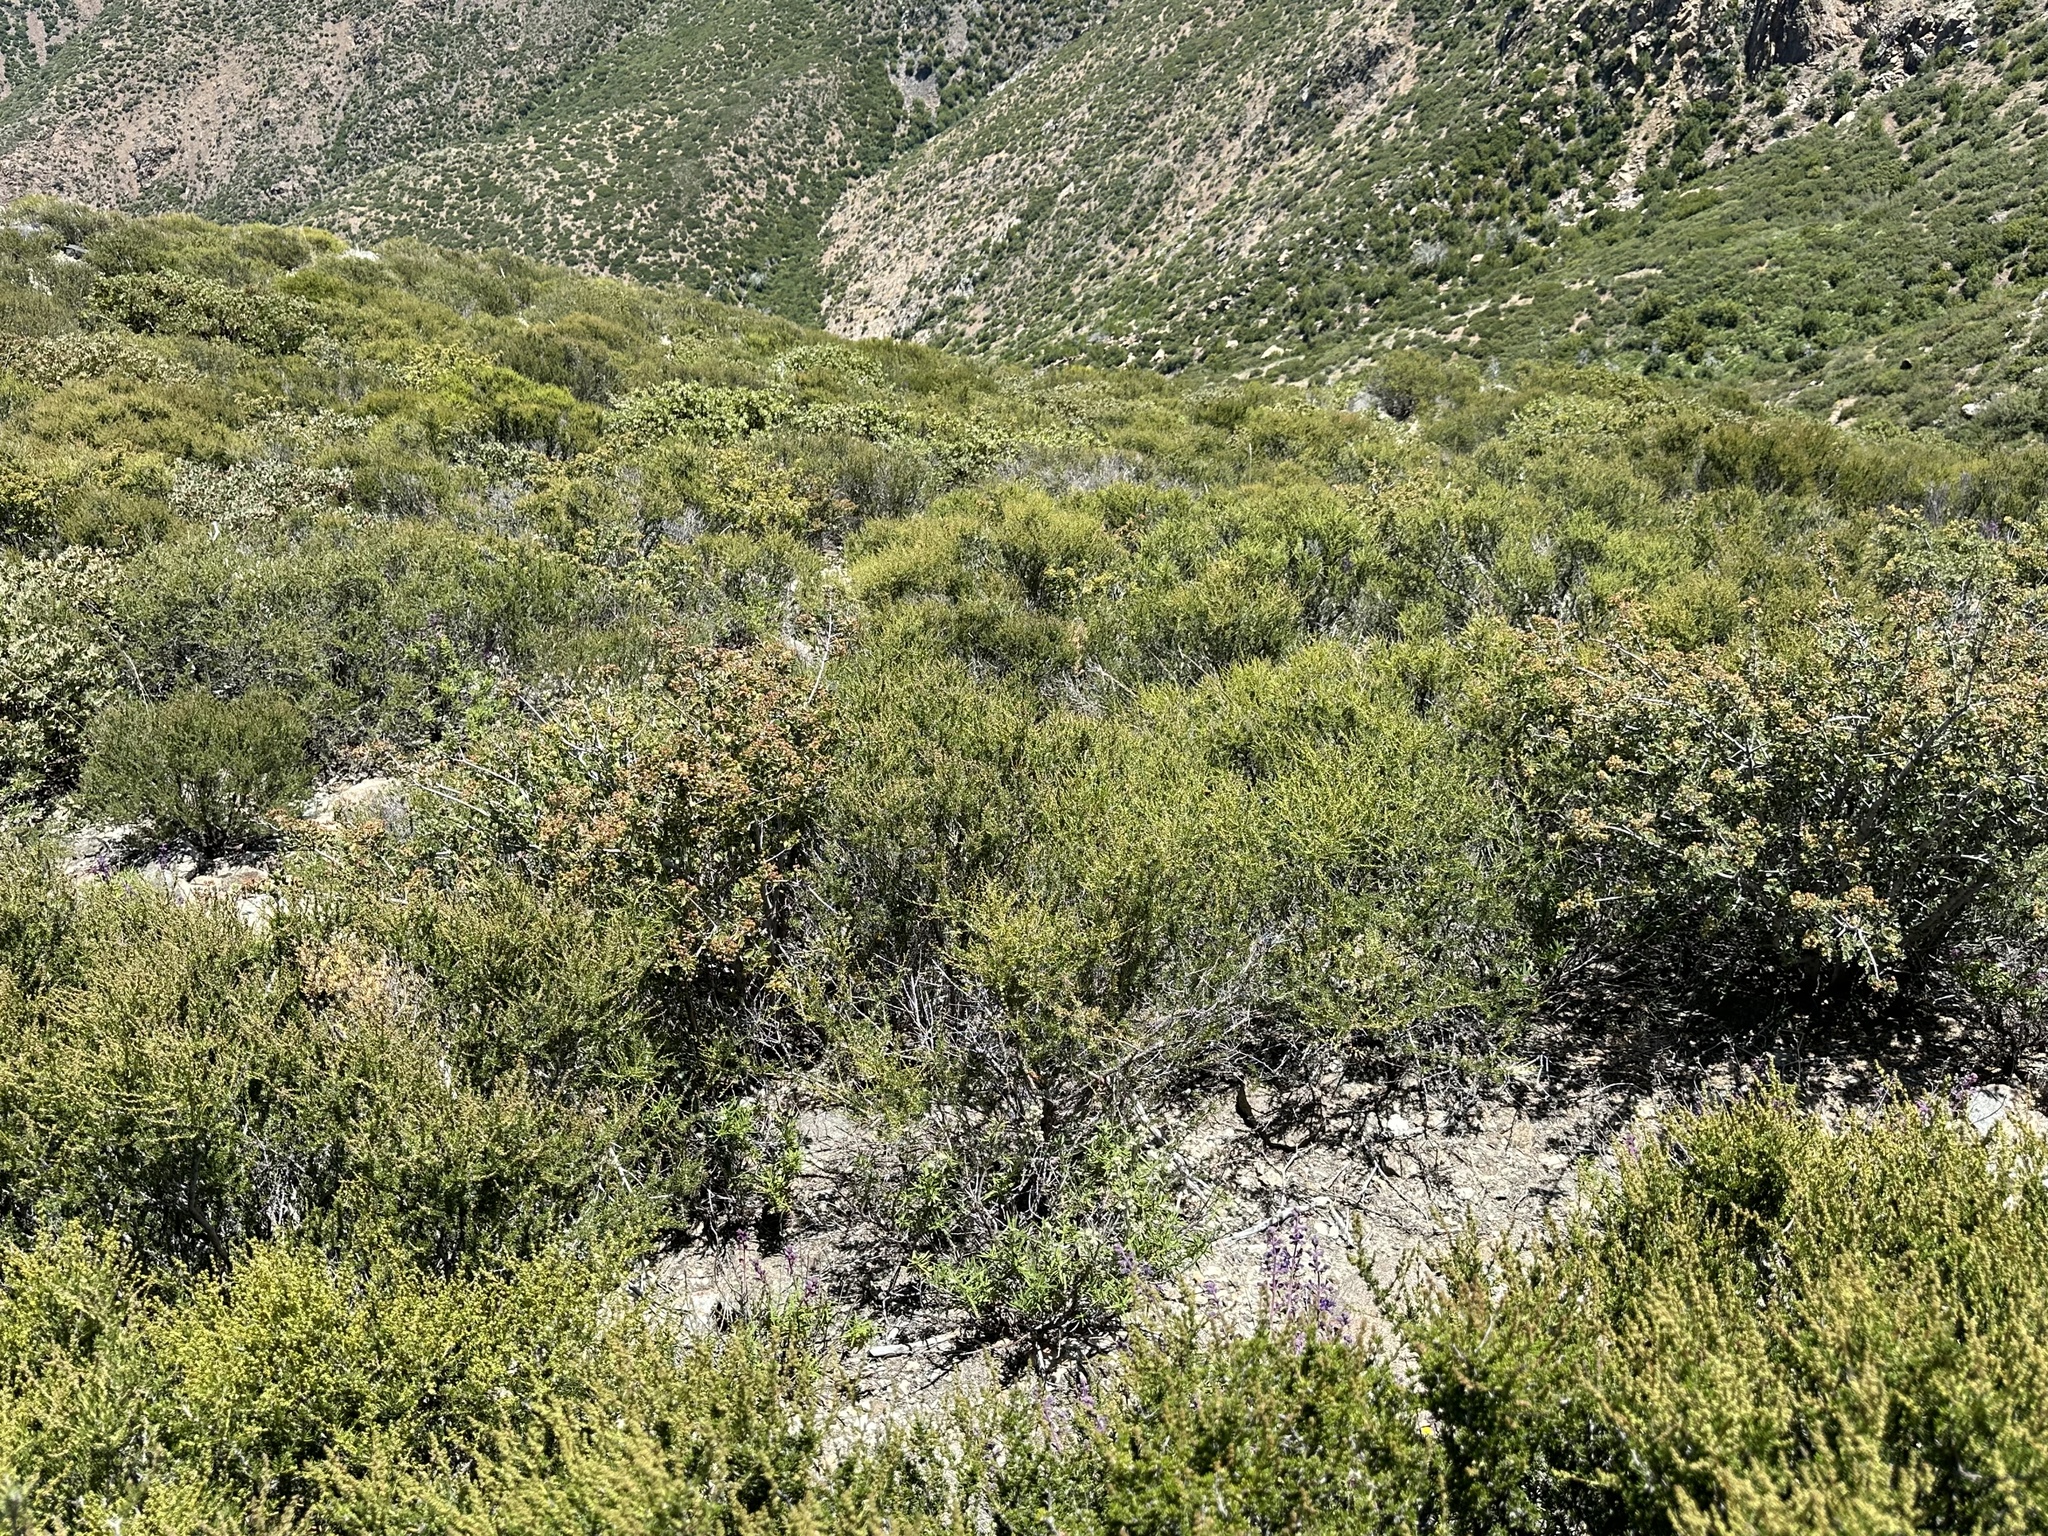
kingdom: Plantae
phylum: Tracheophyta
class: Magnoliopsida
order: Lamiales
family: Lamiaceae
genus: Trichostema
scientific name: Trichostema parishii
